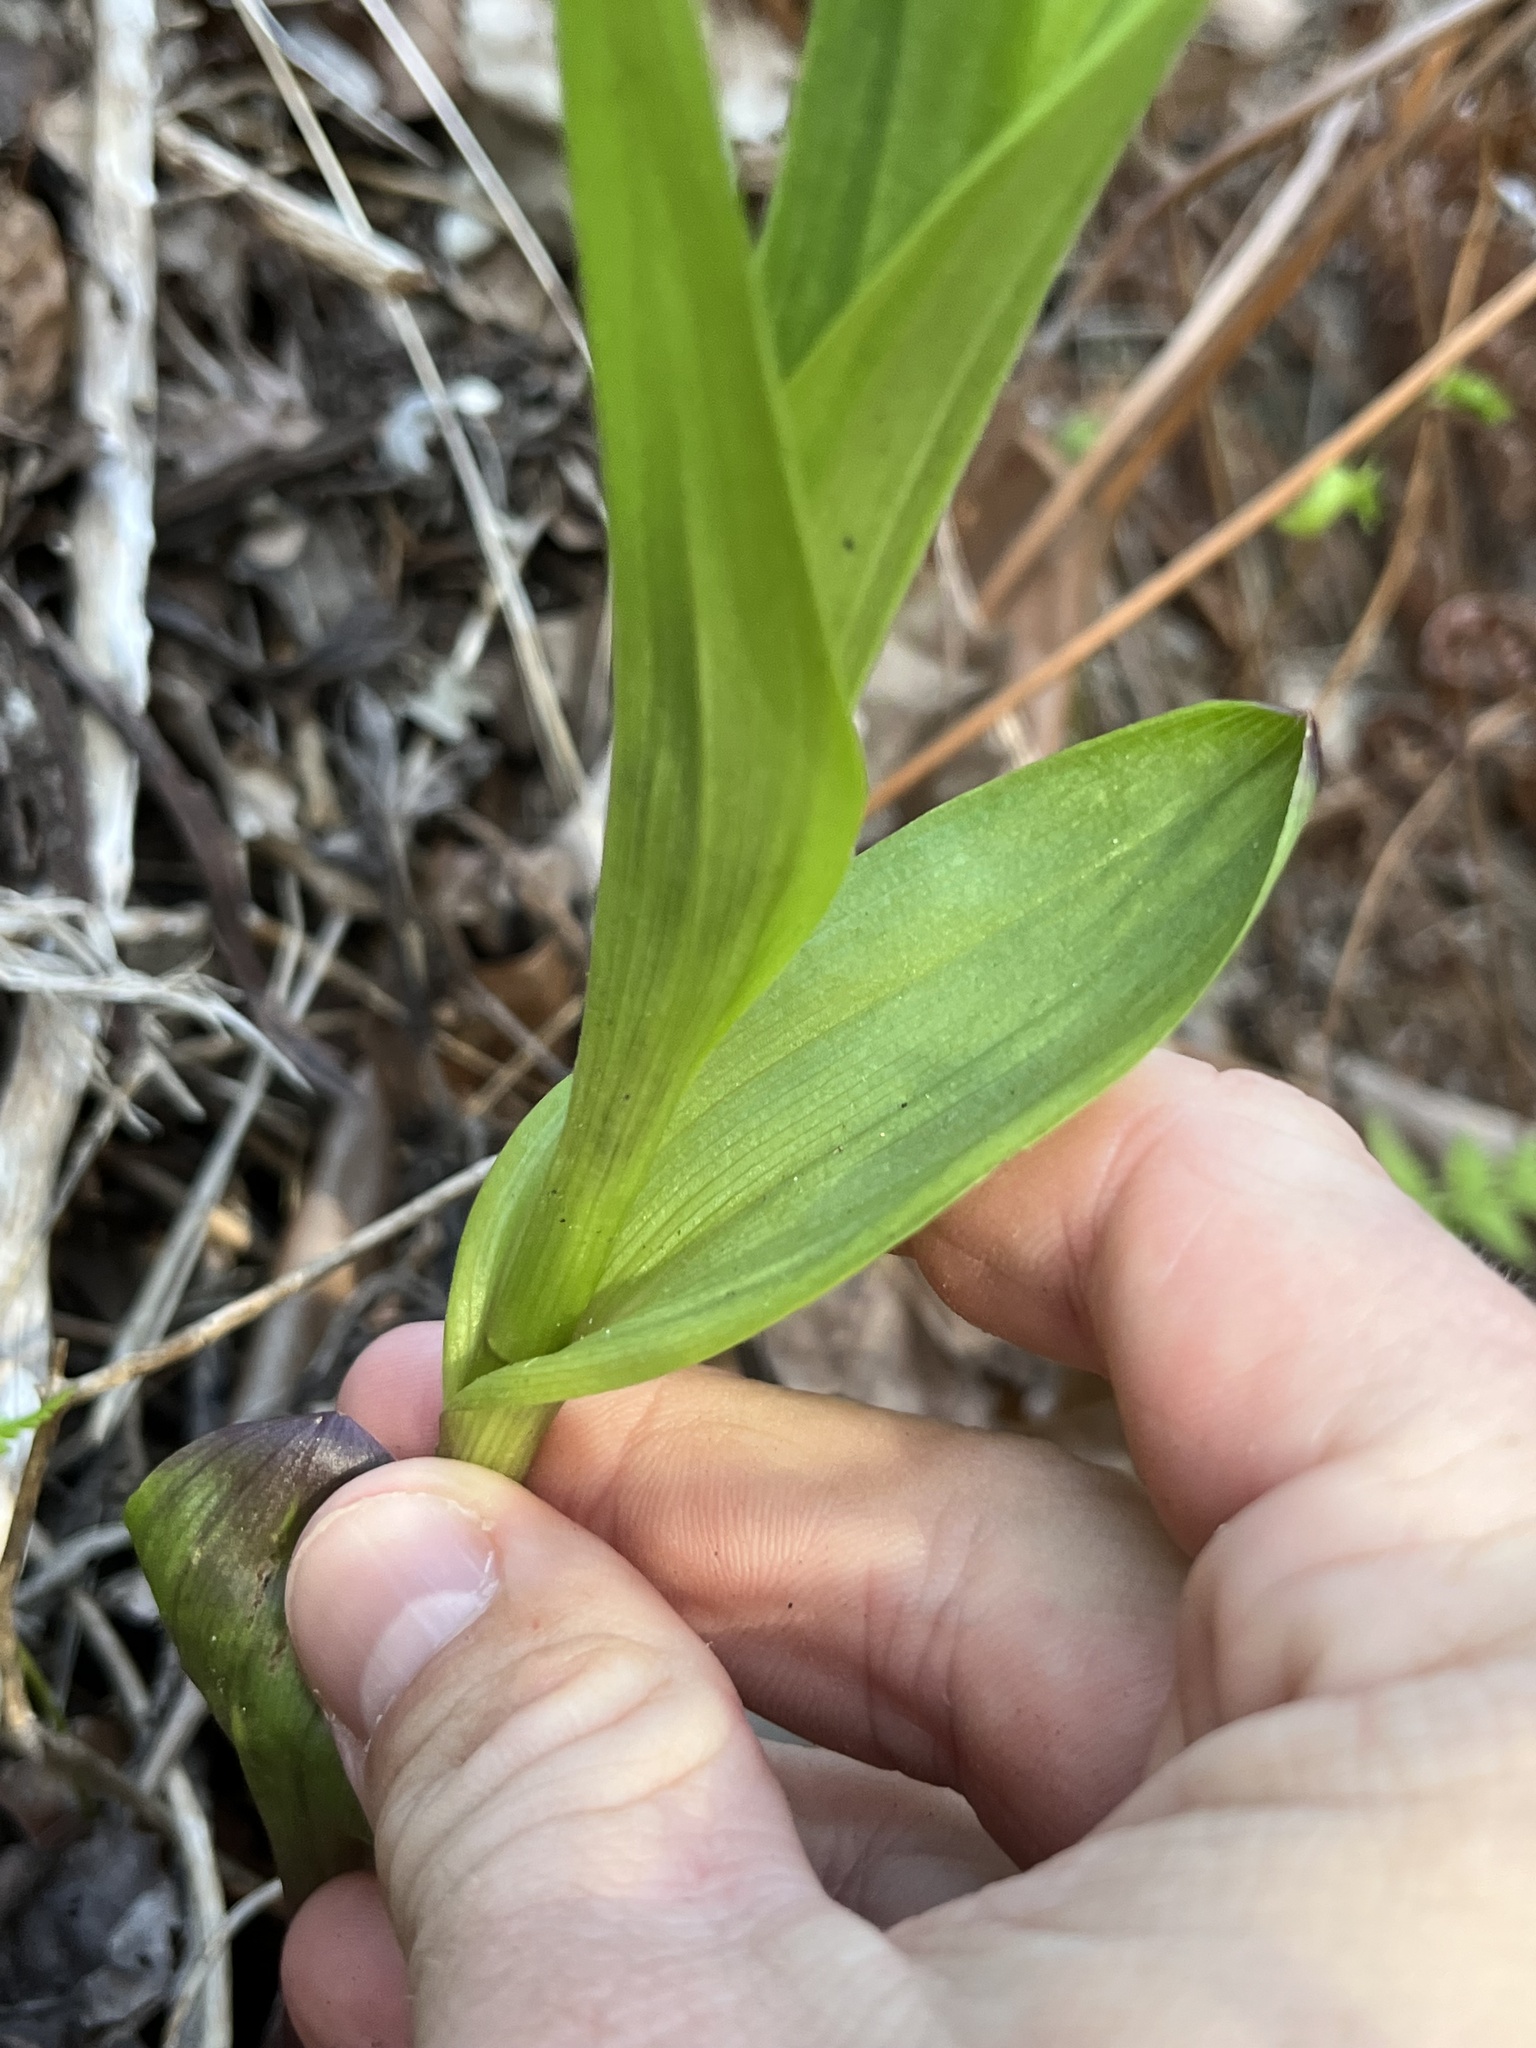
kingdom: Plantae
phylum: Tracheophyta
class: Liliopsida
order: Asparagales
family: Orchidaceae
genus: Epipactis
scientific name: Epipactis gigantea
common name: Chatterbox
